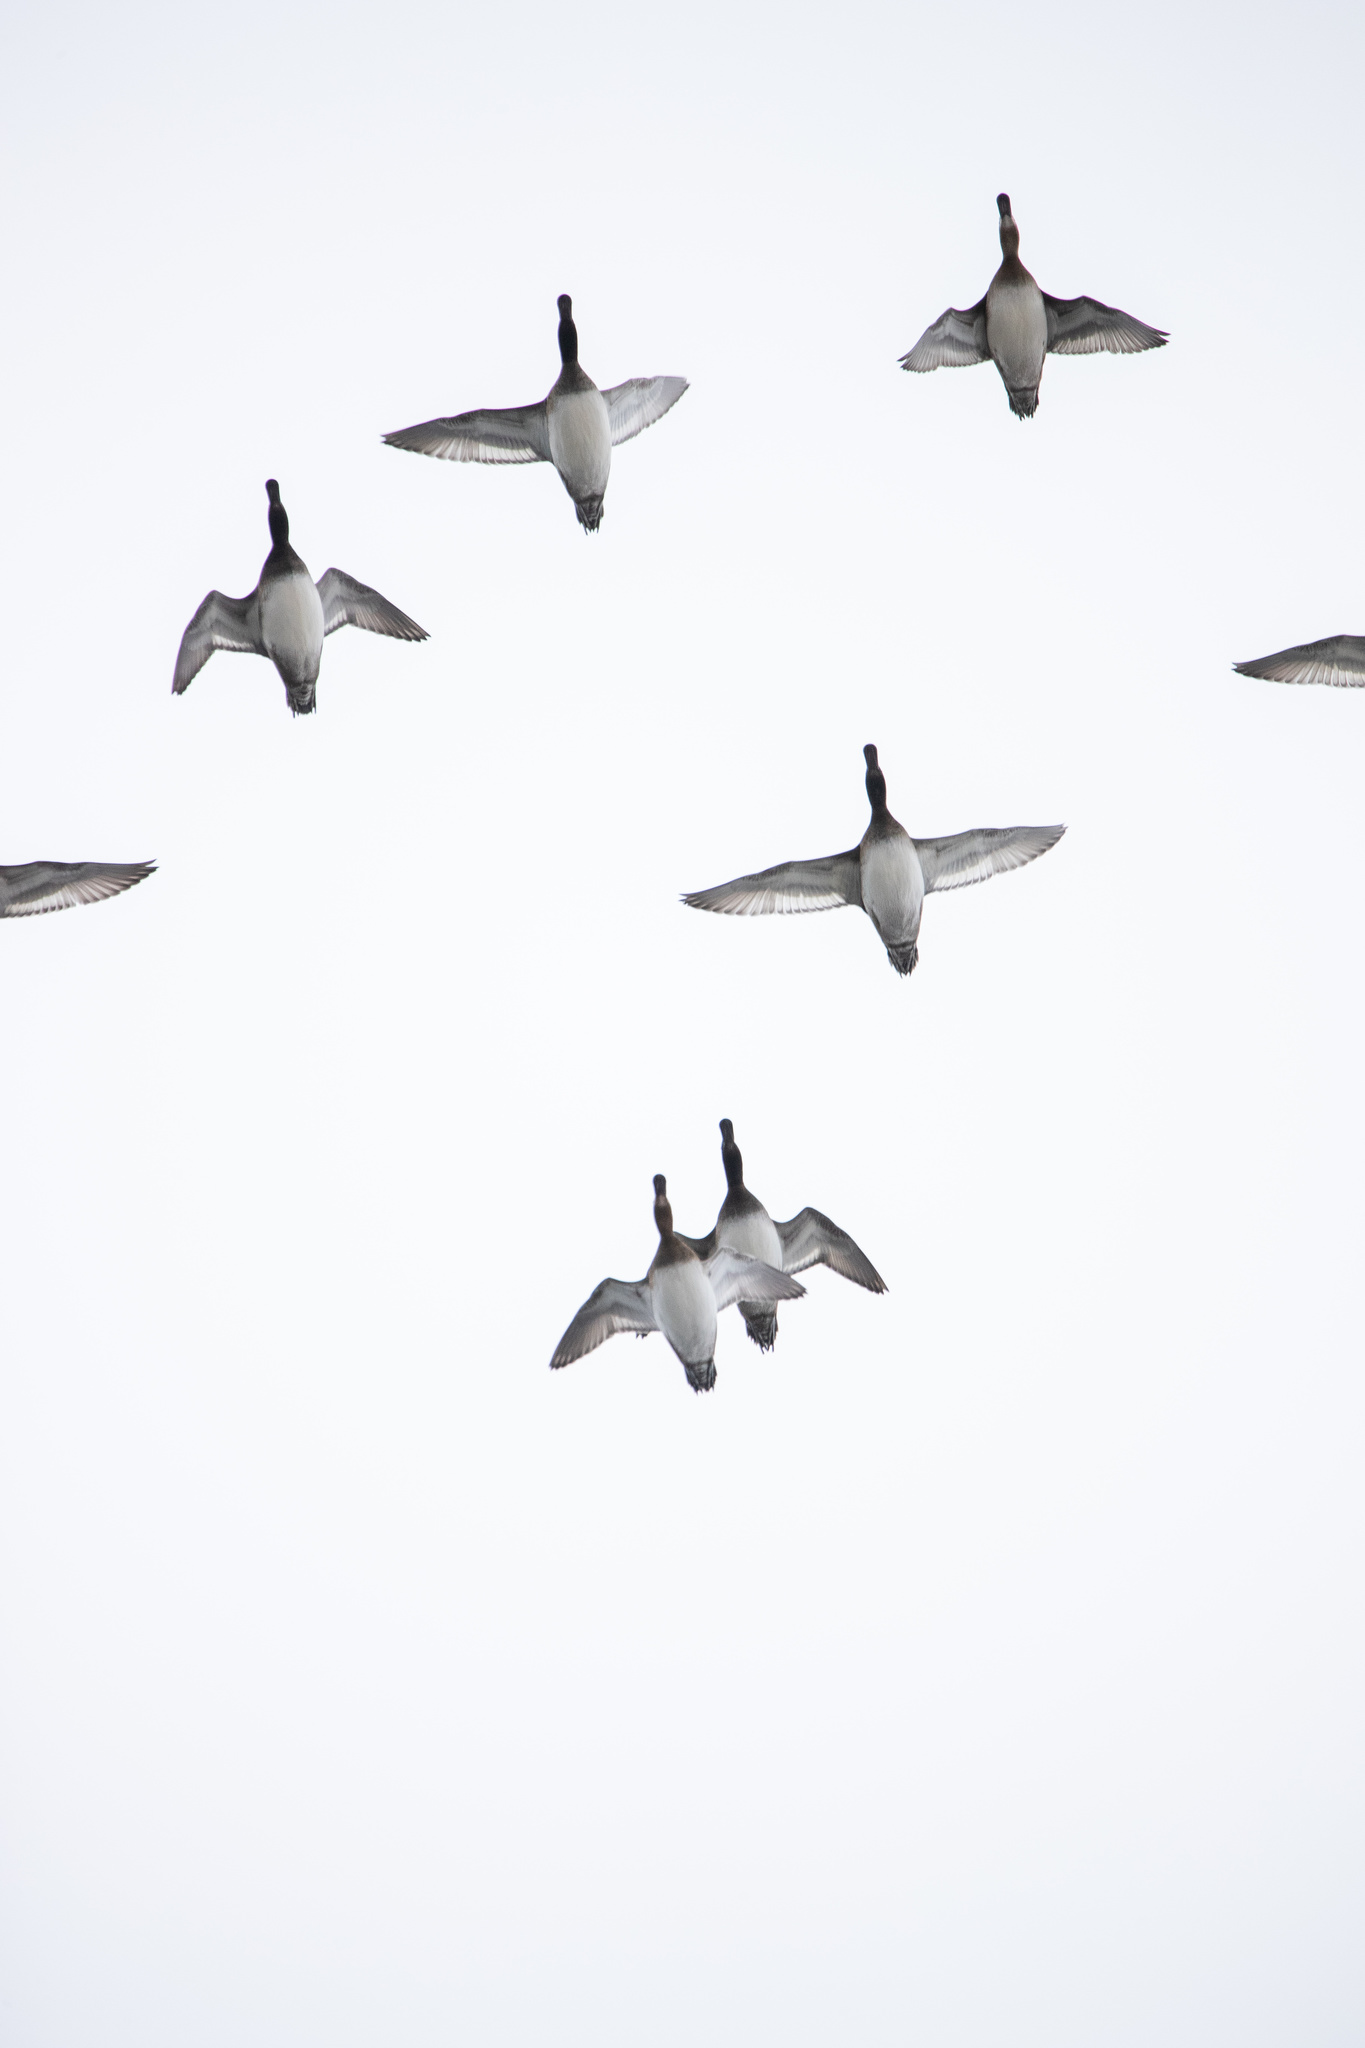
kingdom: Animalia
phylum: Chordata
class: Aves
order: Anseriformes
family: Anatidae
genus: Aythya
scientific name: Aythya marila
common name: Greater scaup
